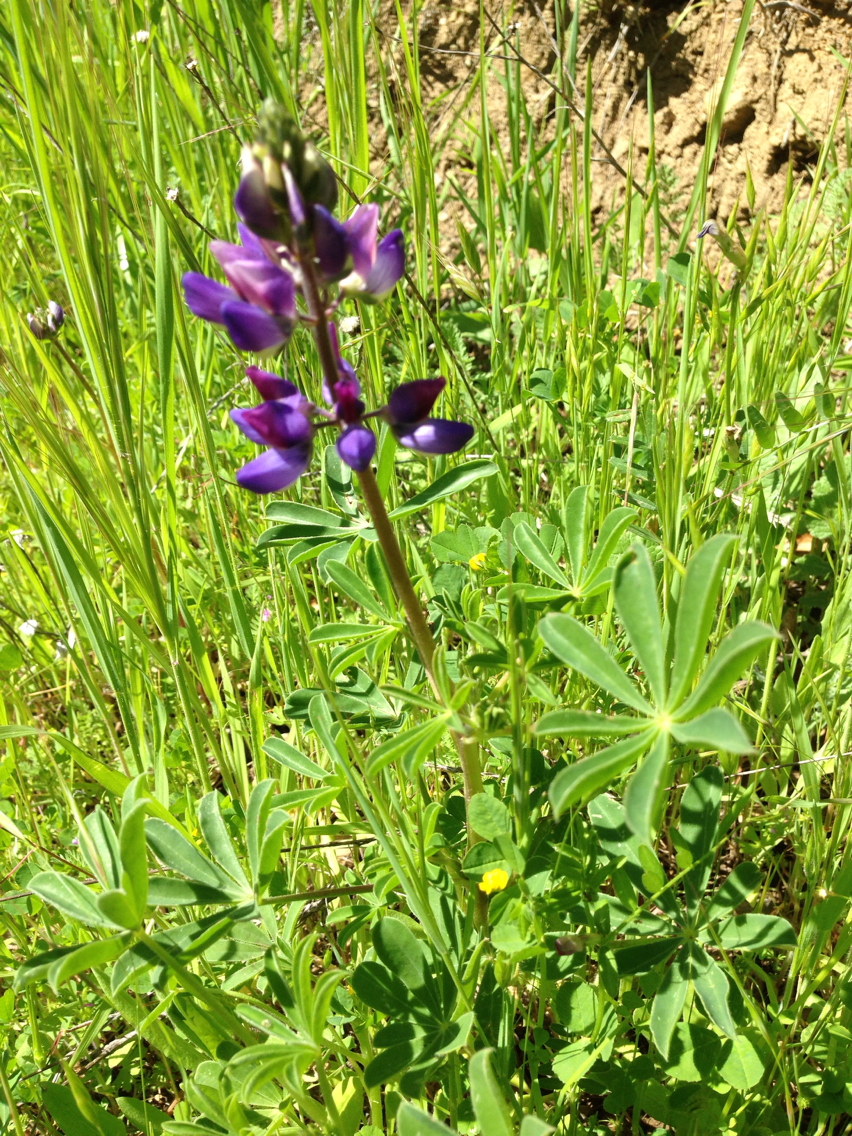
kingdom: Plantae
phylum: Tracheophyta
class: Magnoliopsida
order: Fabales
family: Fabaceae
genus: Lupinus
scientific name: Lupinus succulentus
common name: Arroyo lupine
